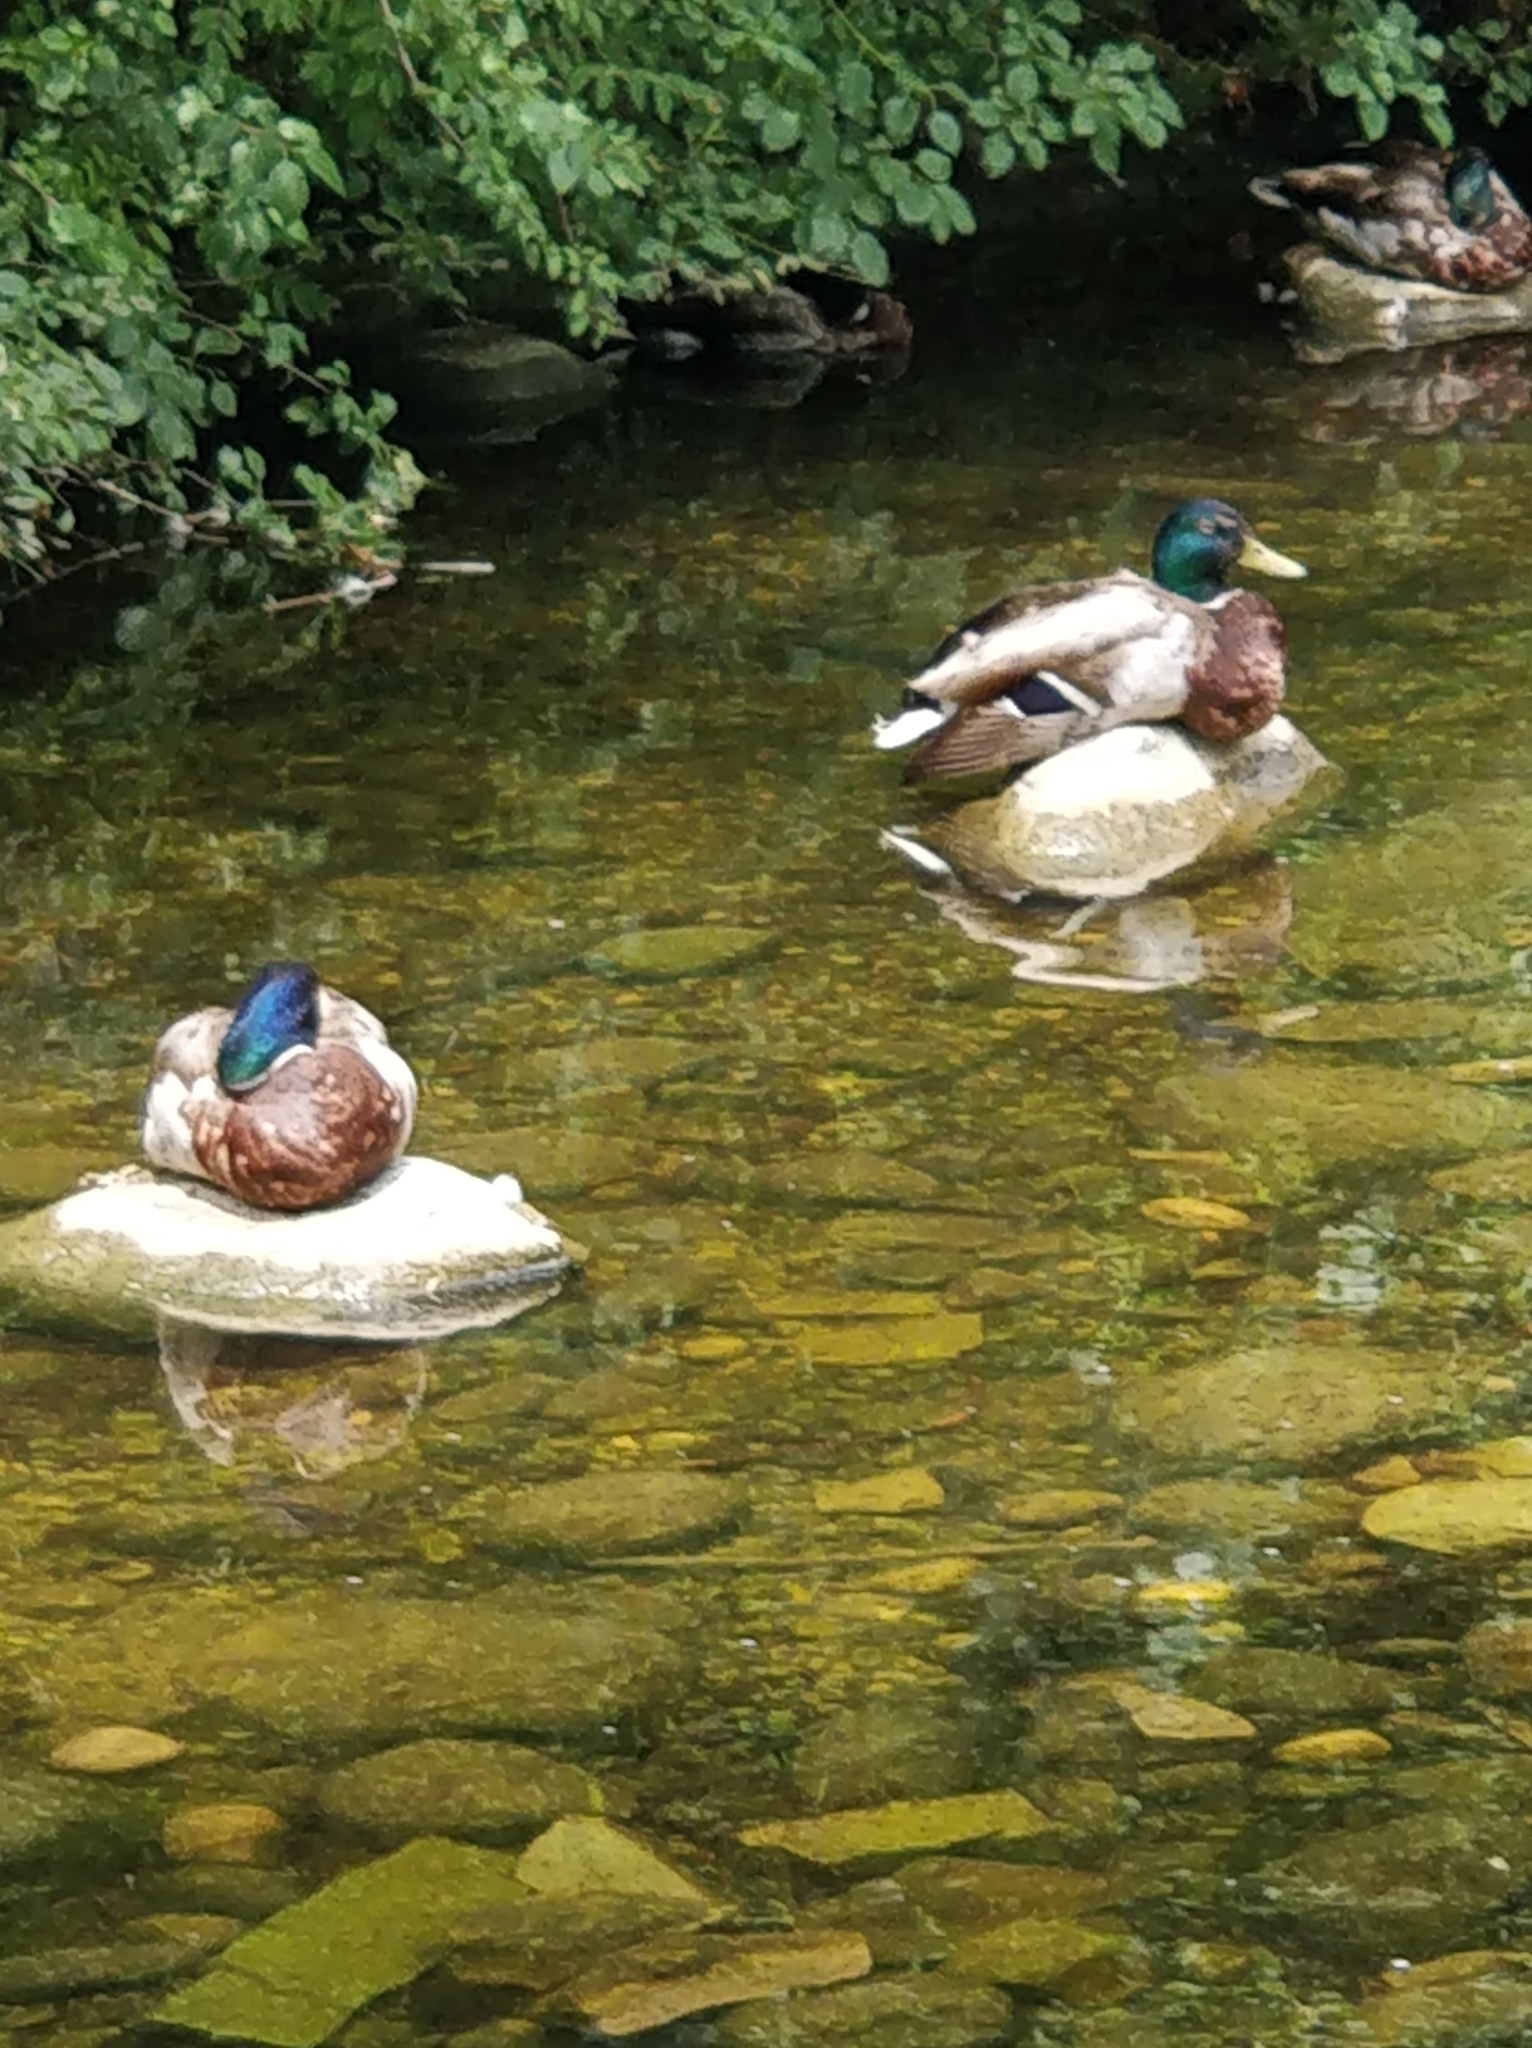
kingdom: Animalia
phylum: Chordata
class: Aves
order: Anseriformes
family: Anatidae
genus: Anas
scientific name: Anas platyrhynchos
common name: Mallard
